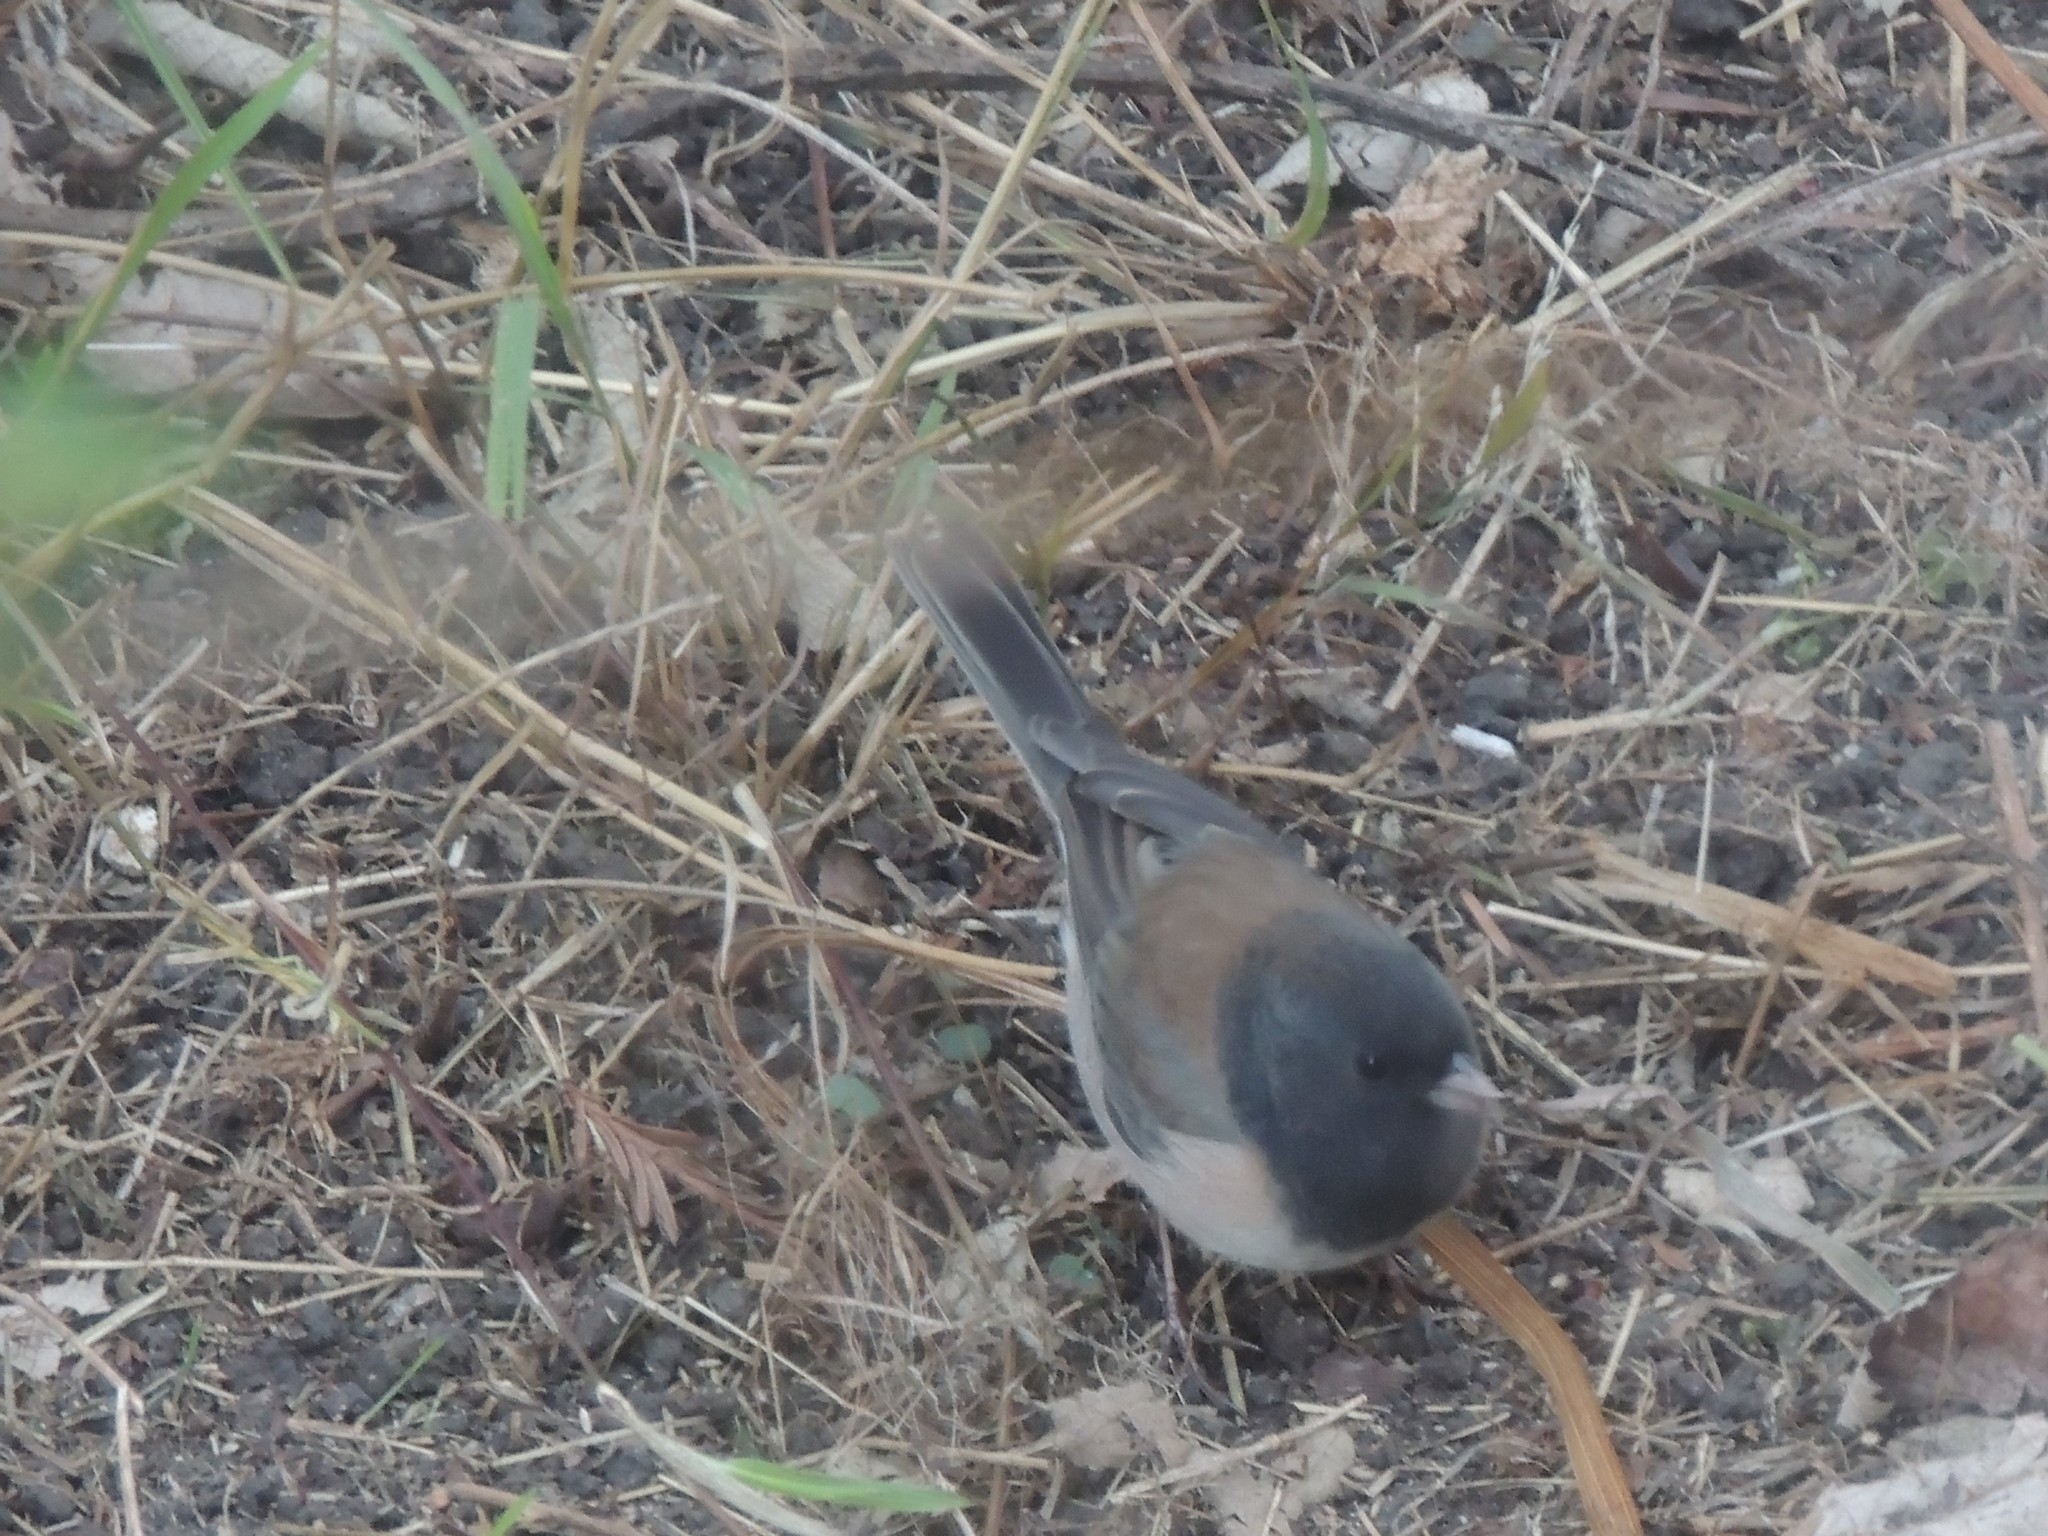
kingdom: Animalia
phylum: Chordata
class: Aves
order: Passeriformes
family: Passerellidae
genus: Junco
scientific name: Junco hyemalis
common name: Dark-eyed junco
